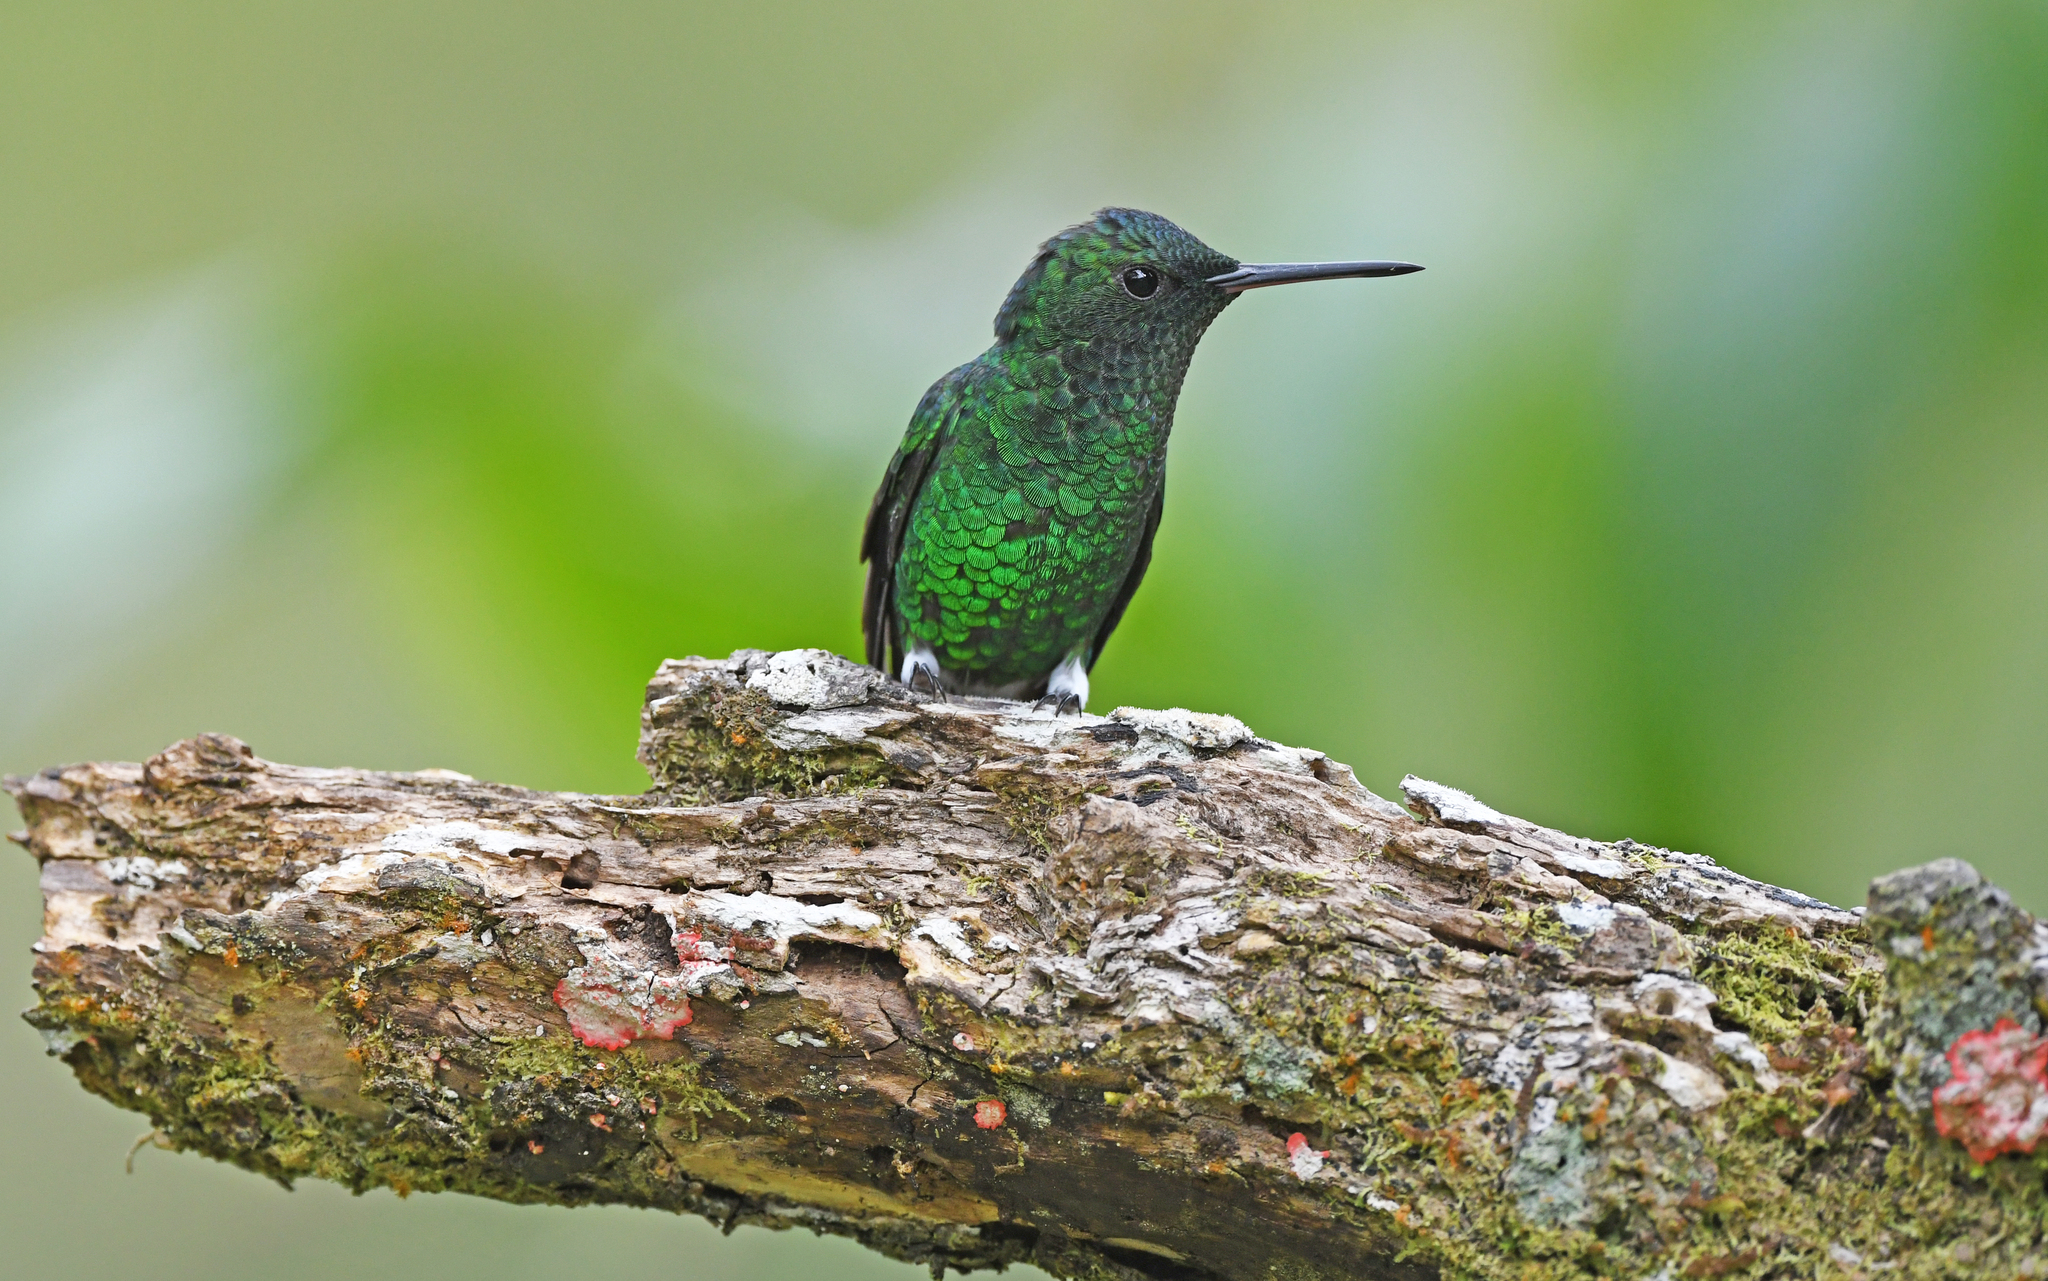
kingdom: Animalia
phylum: Chordata
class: Aves
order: Apodiformes
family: Trochilidae
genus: Saucerottia
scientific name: Saucerottia saucerottei
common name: Steely-vented hummingbird
